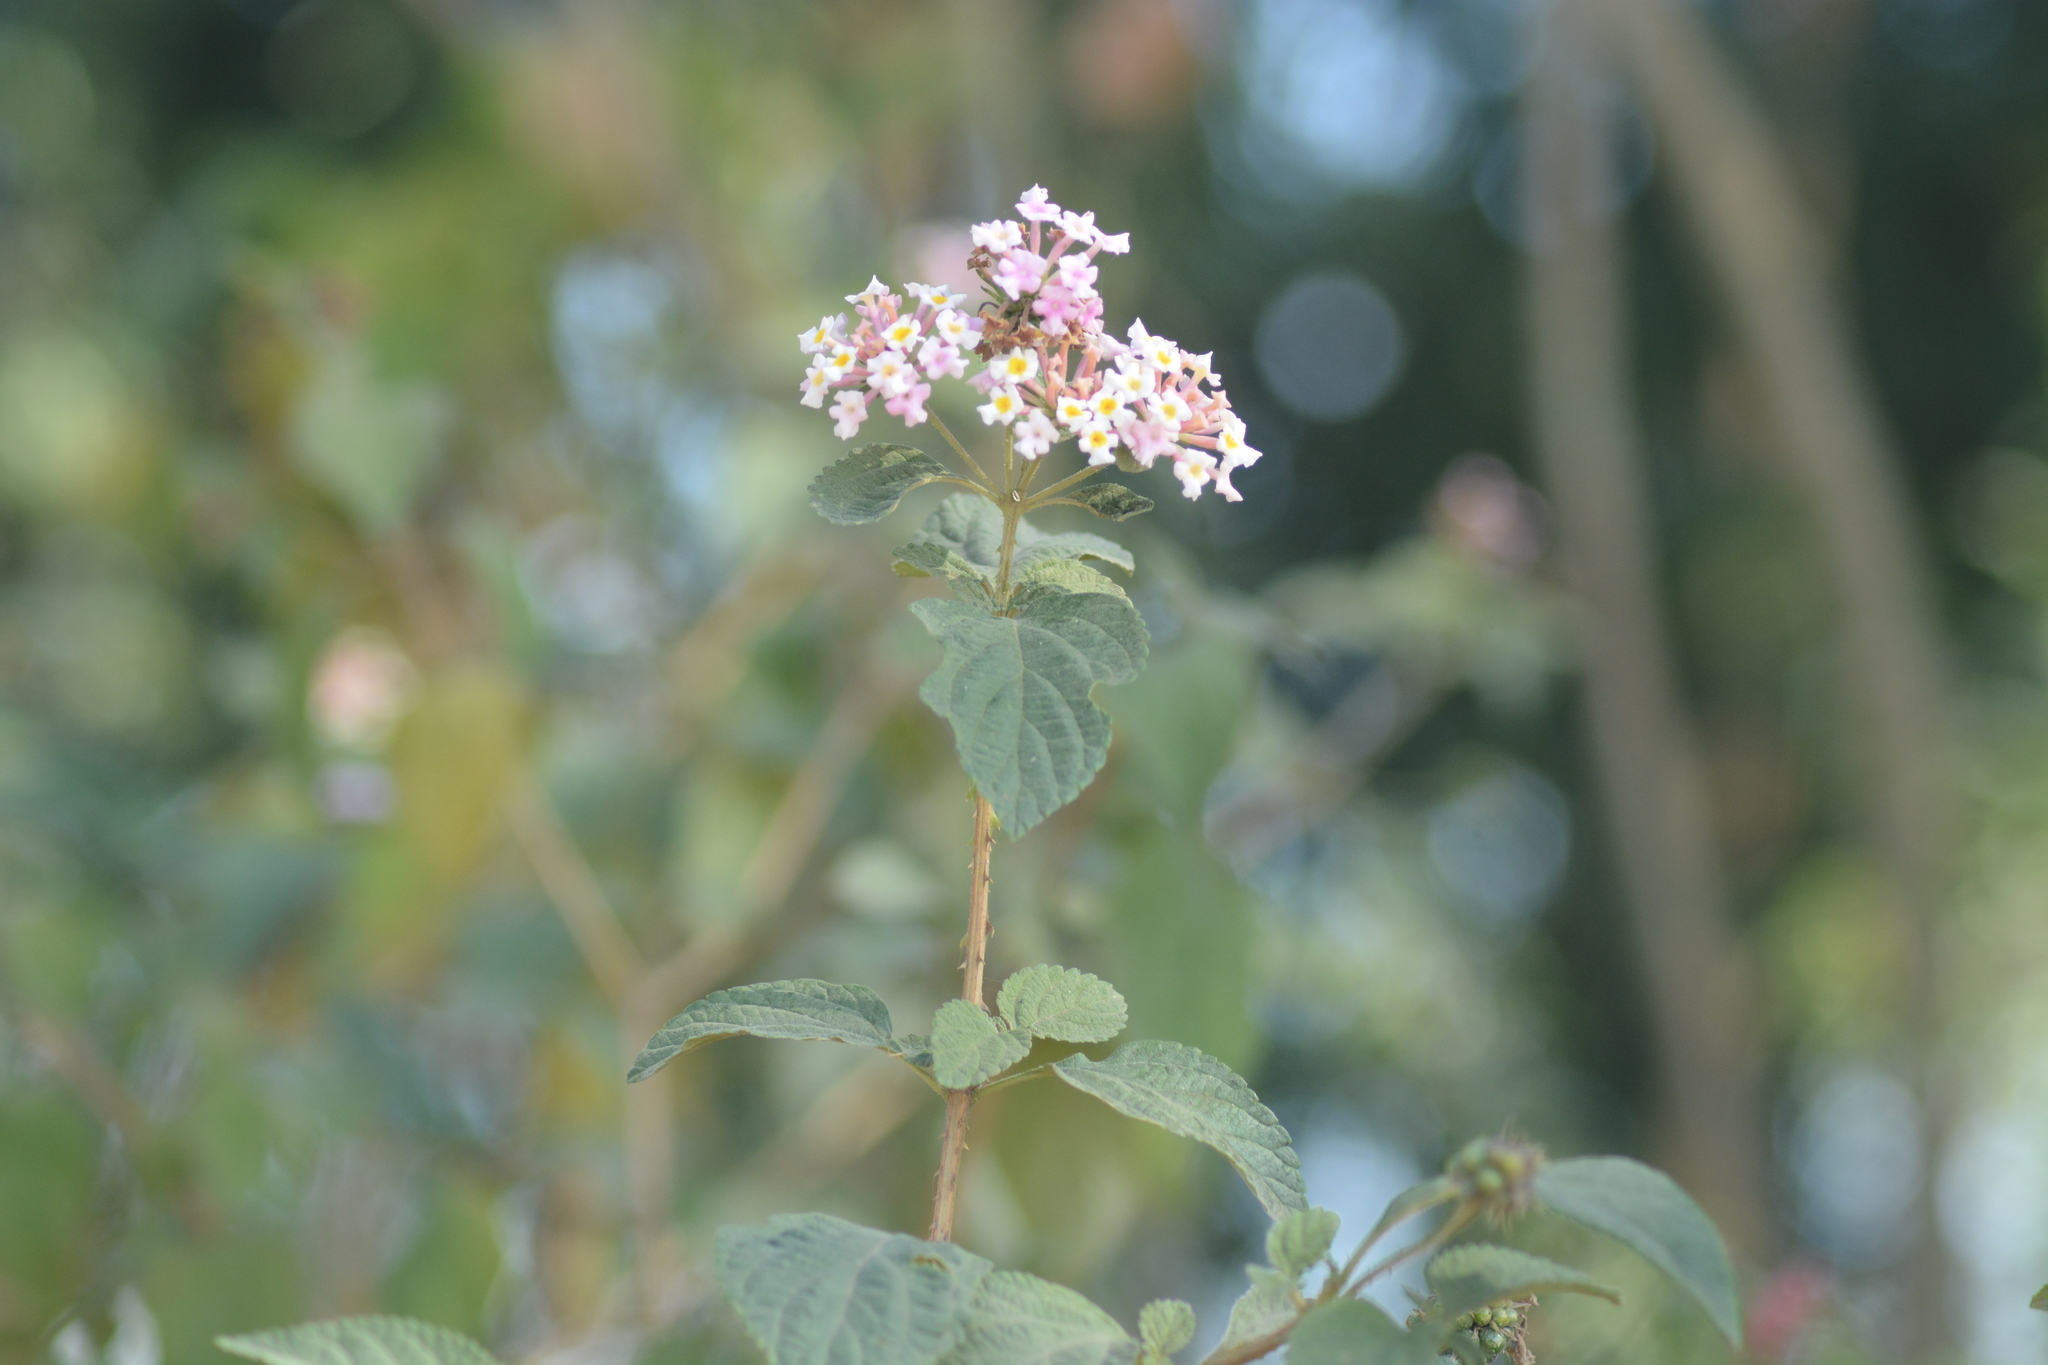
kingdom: Plantae
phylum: Tracheophyta
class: Magnoliopsida
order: Lamiales
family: Verbenaceae
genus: Lantana
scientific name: Lantana camara
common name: Lantana
